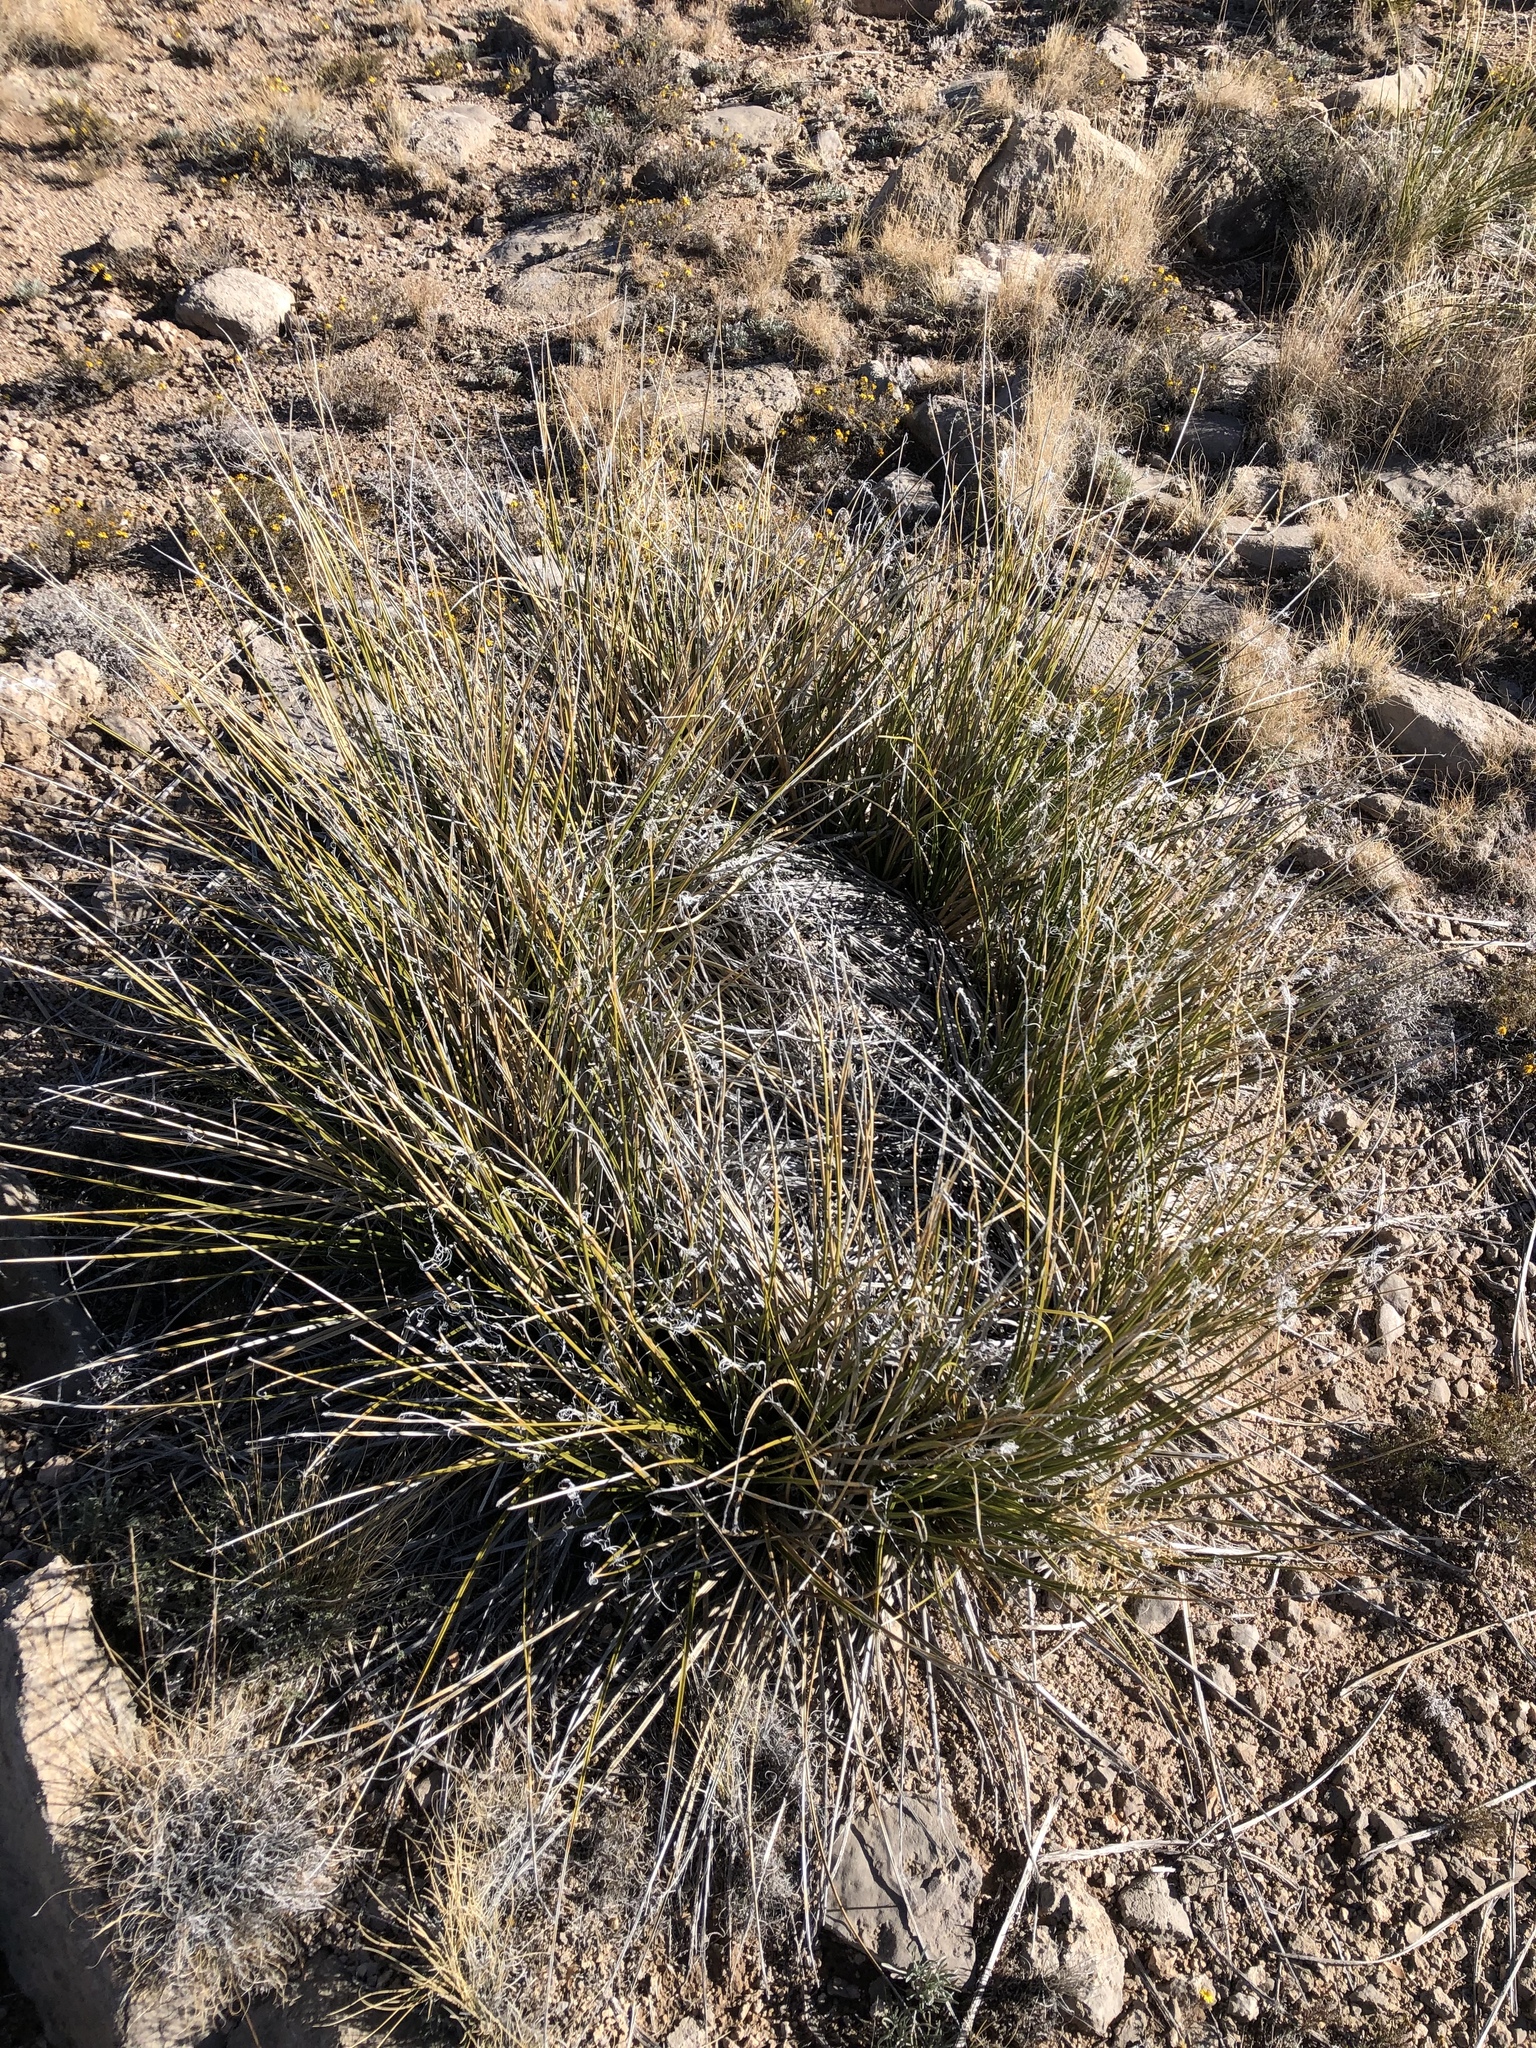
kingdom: Plantae
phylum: Tracheophyta
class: Liliopsida
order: Asparagales
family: Asparagaceae
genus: Nolina
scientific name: Nolina microcarpa
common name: Bear-grass
